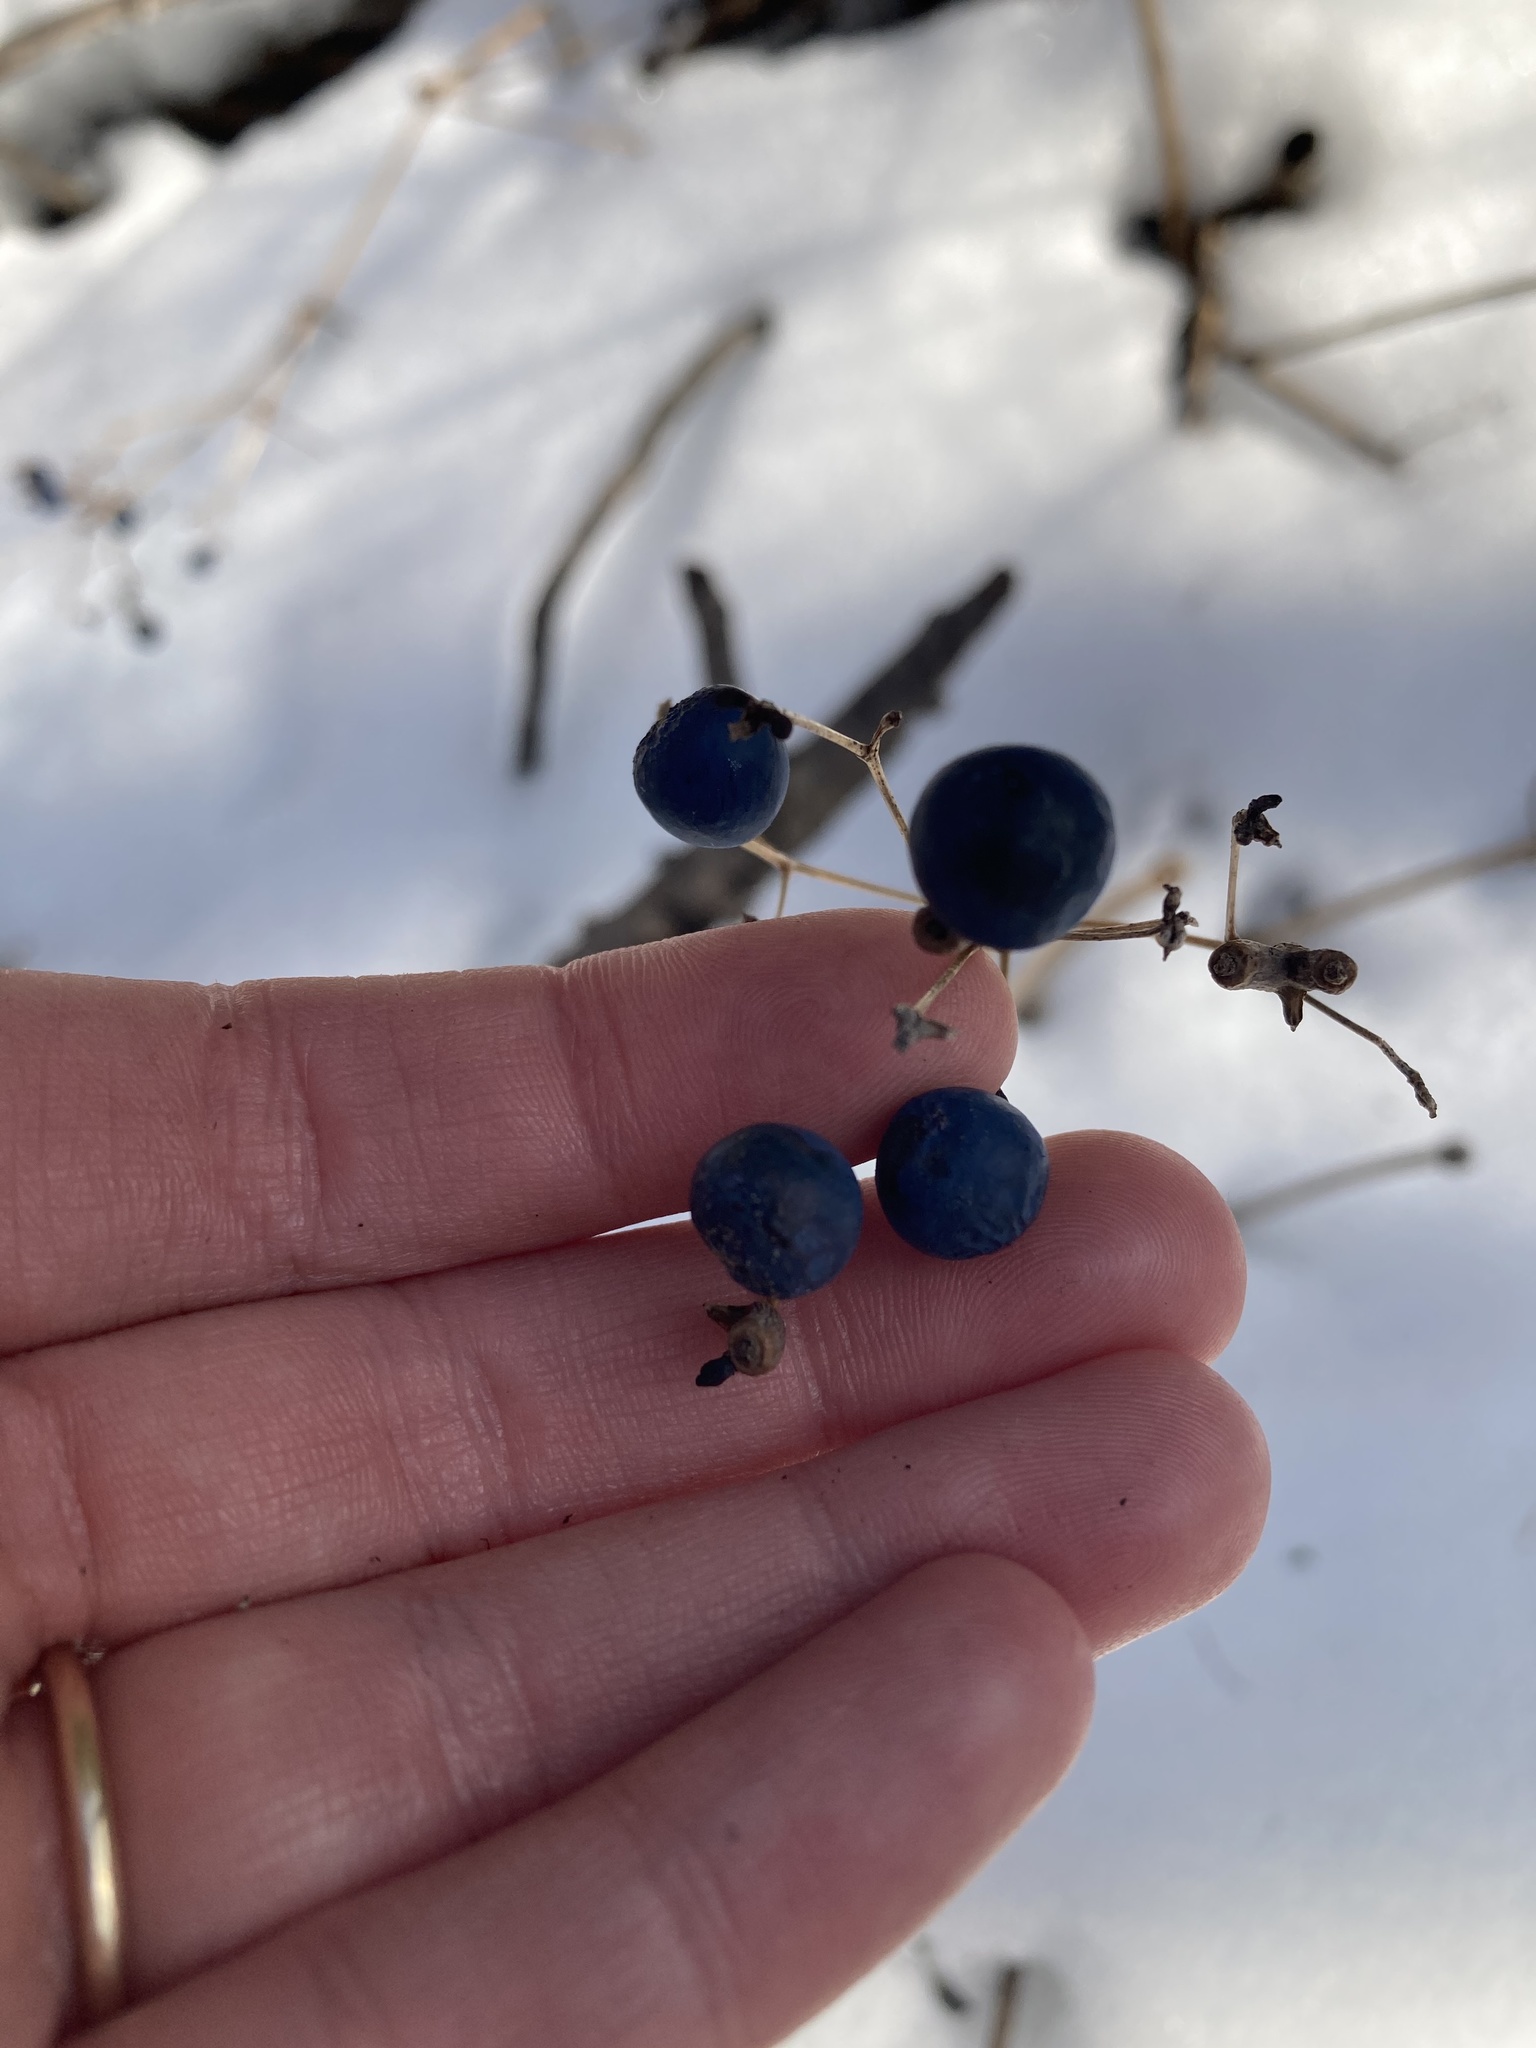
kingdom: Plantae
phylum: Tracheophyta
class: Magnoliopsida
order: Ranunculales
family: Berberidaceae
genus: Caulophyllum
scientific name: Caulophyllum thalictroides
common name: Blue cohosh
